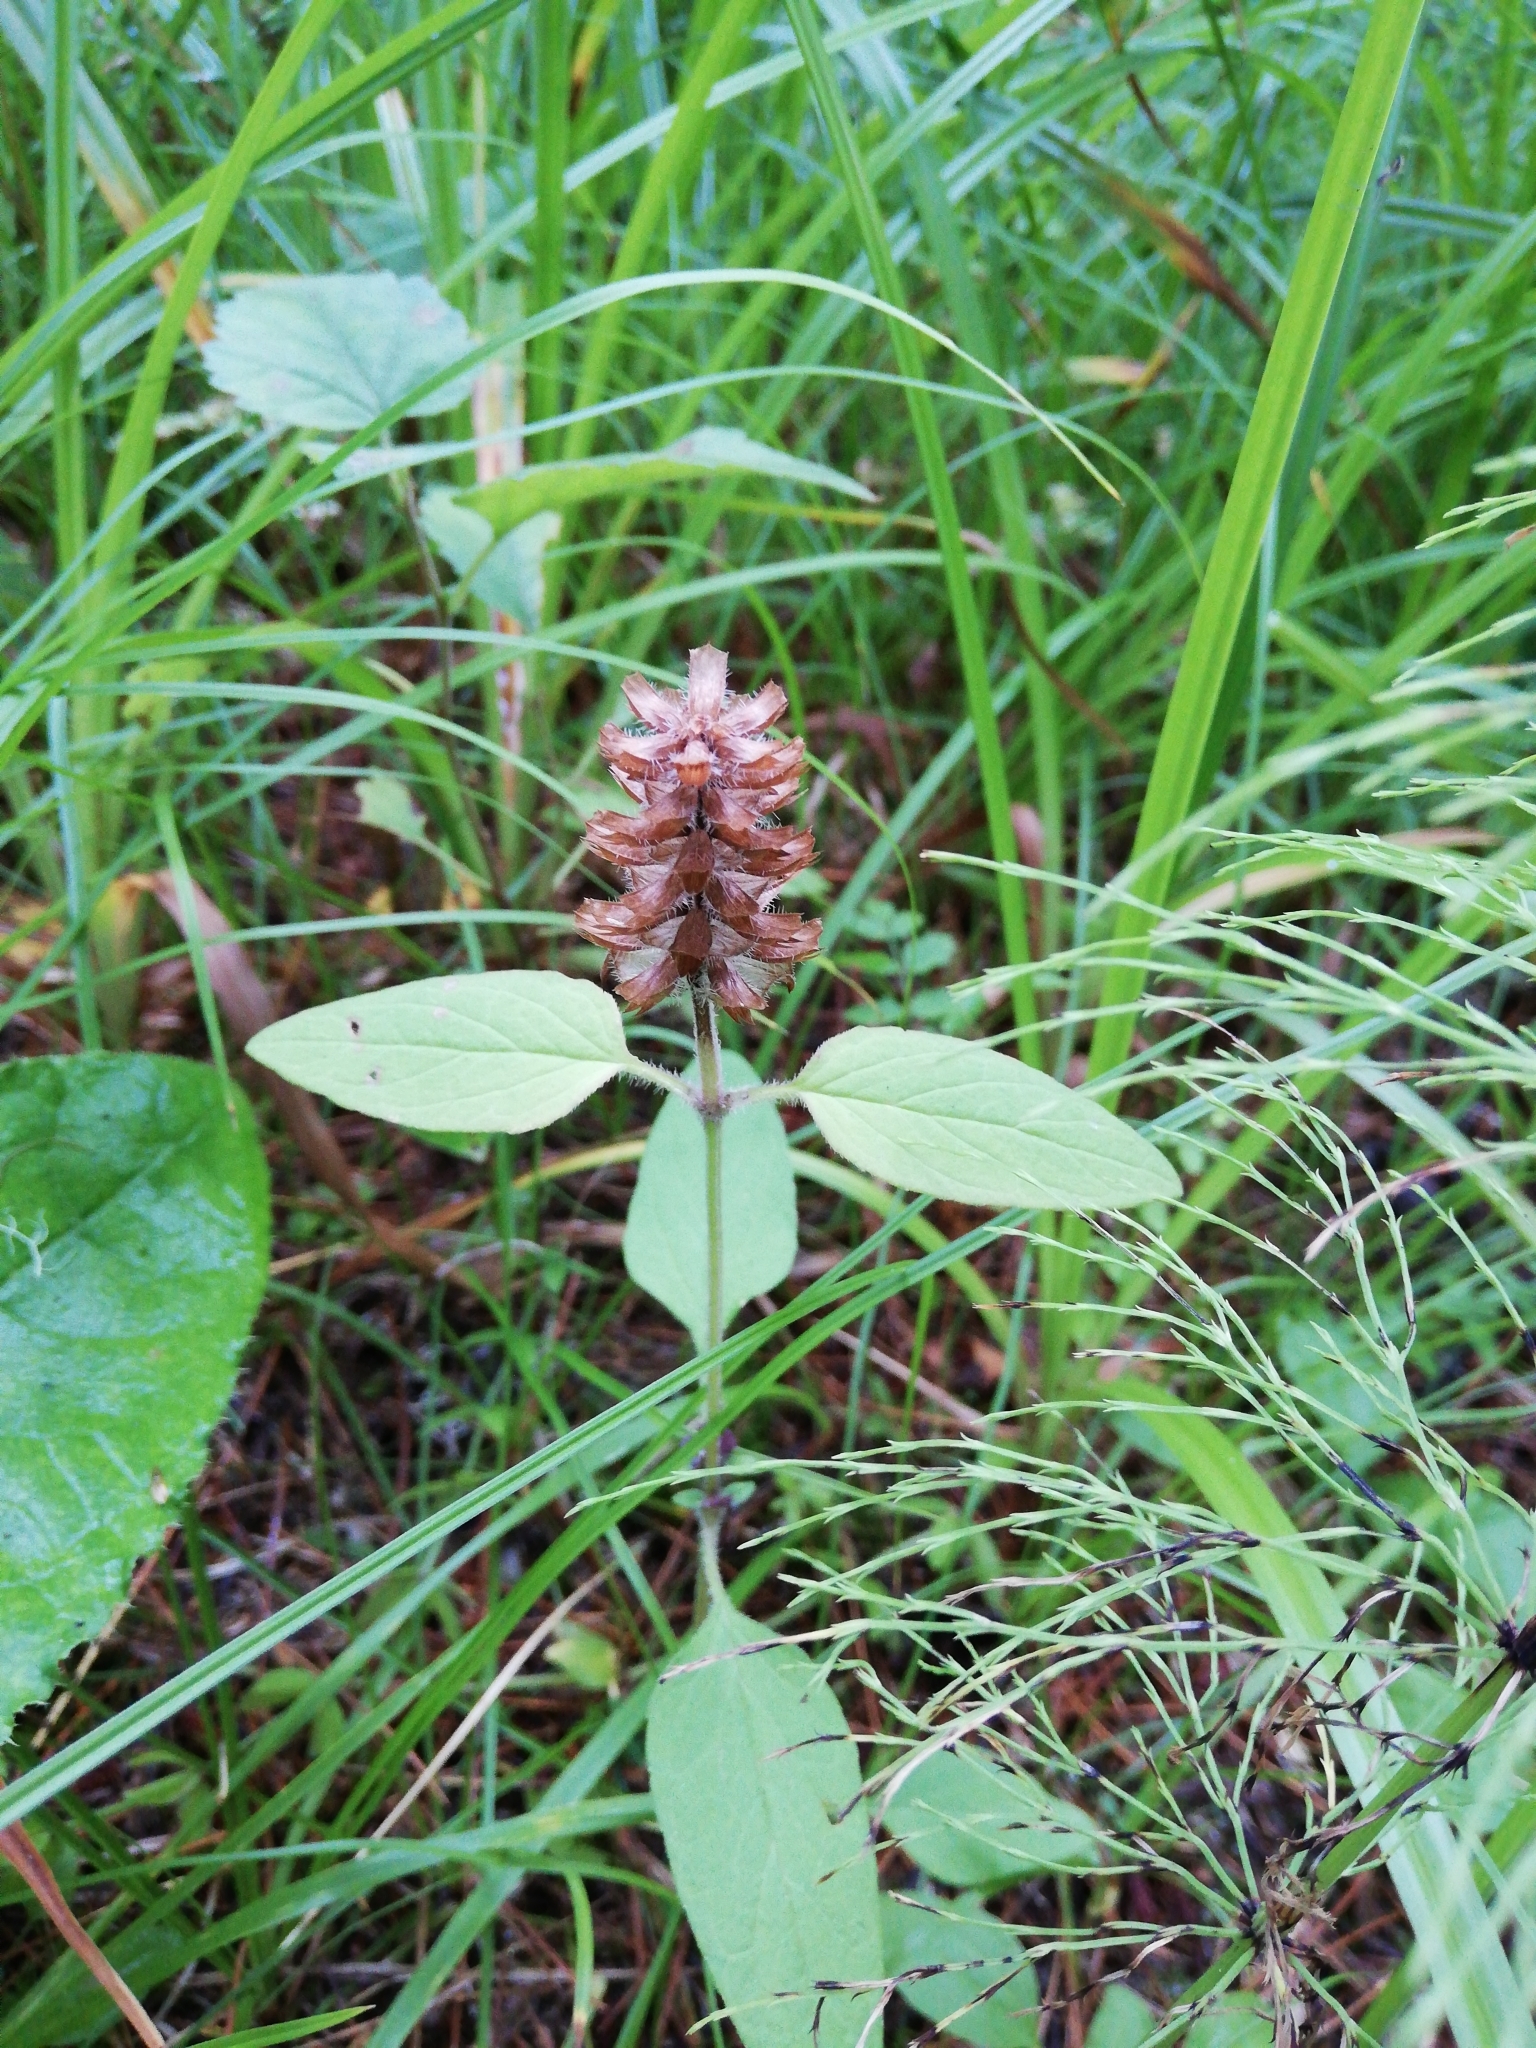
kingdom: Plantae
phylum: Tracheophyta
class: Magnoliopsida
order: Lamiales
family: Lamiaceae
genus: Prunella
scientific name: Prunella vulgaris
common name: Heal-all
